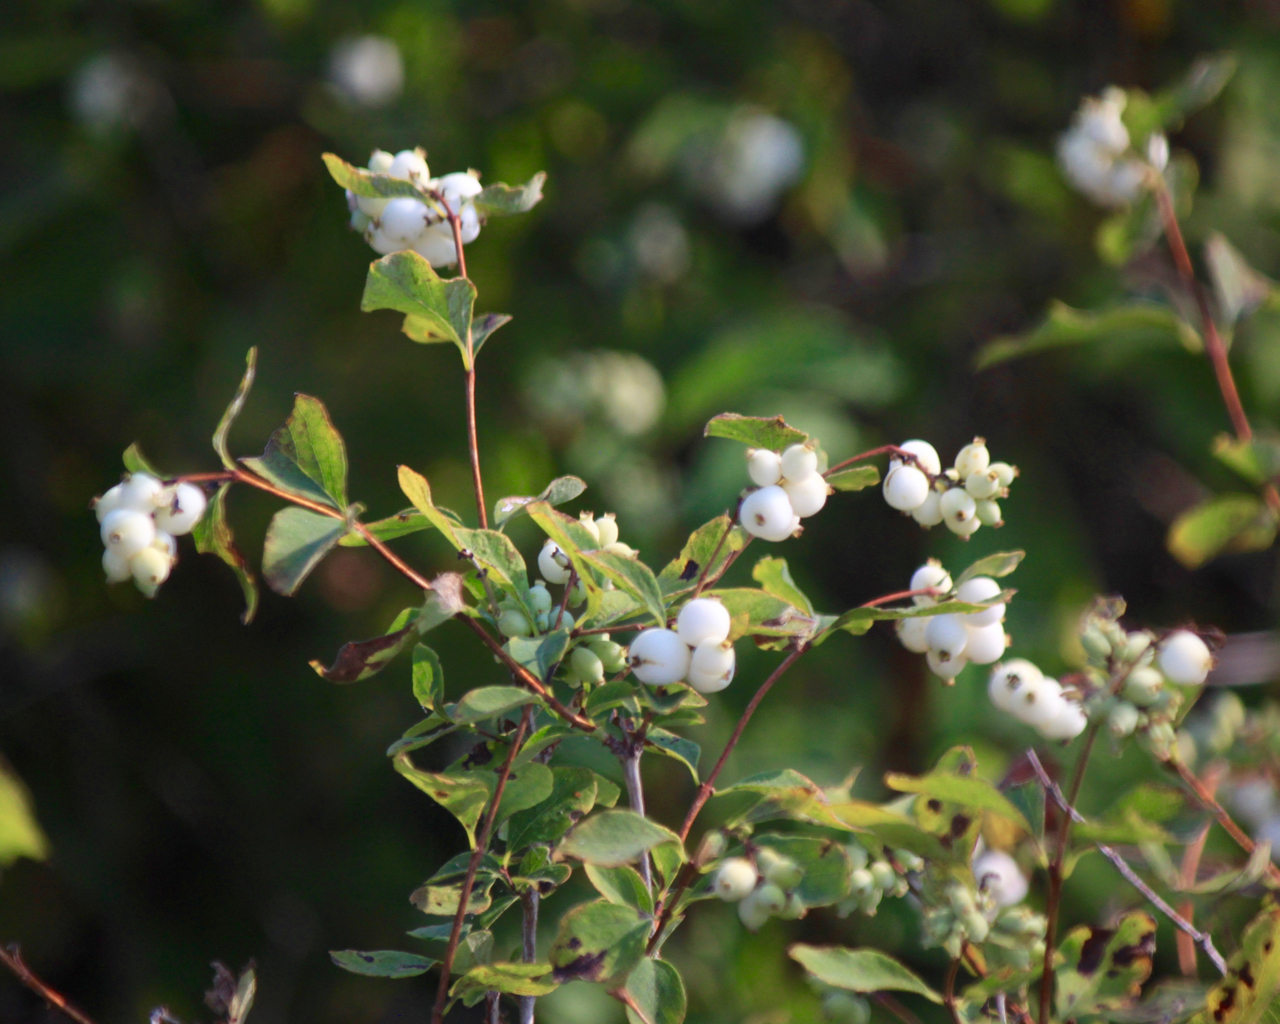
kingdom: Plantae
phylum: Tracheophyta
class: Magnoliopsida
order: Dipsacales
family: Caprifoliaceae
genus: Symphoricarpos
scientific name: Symphoricarpos albus
